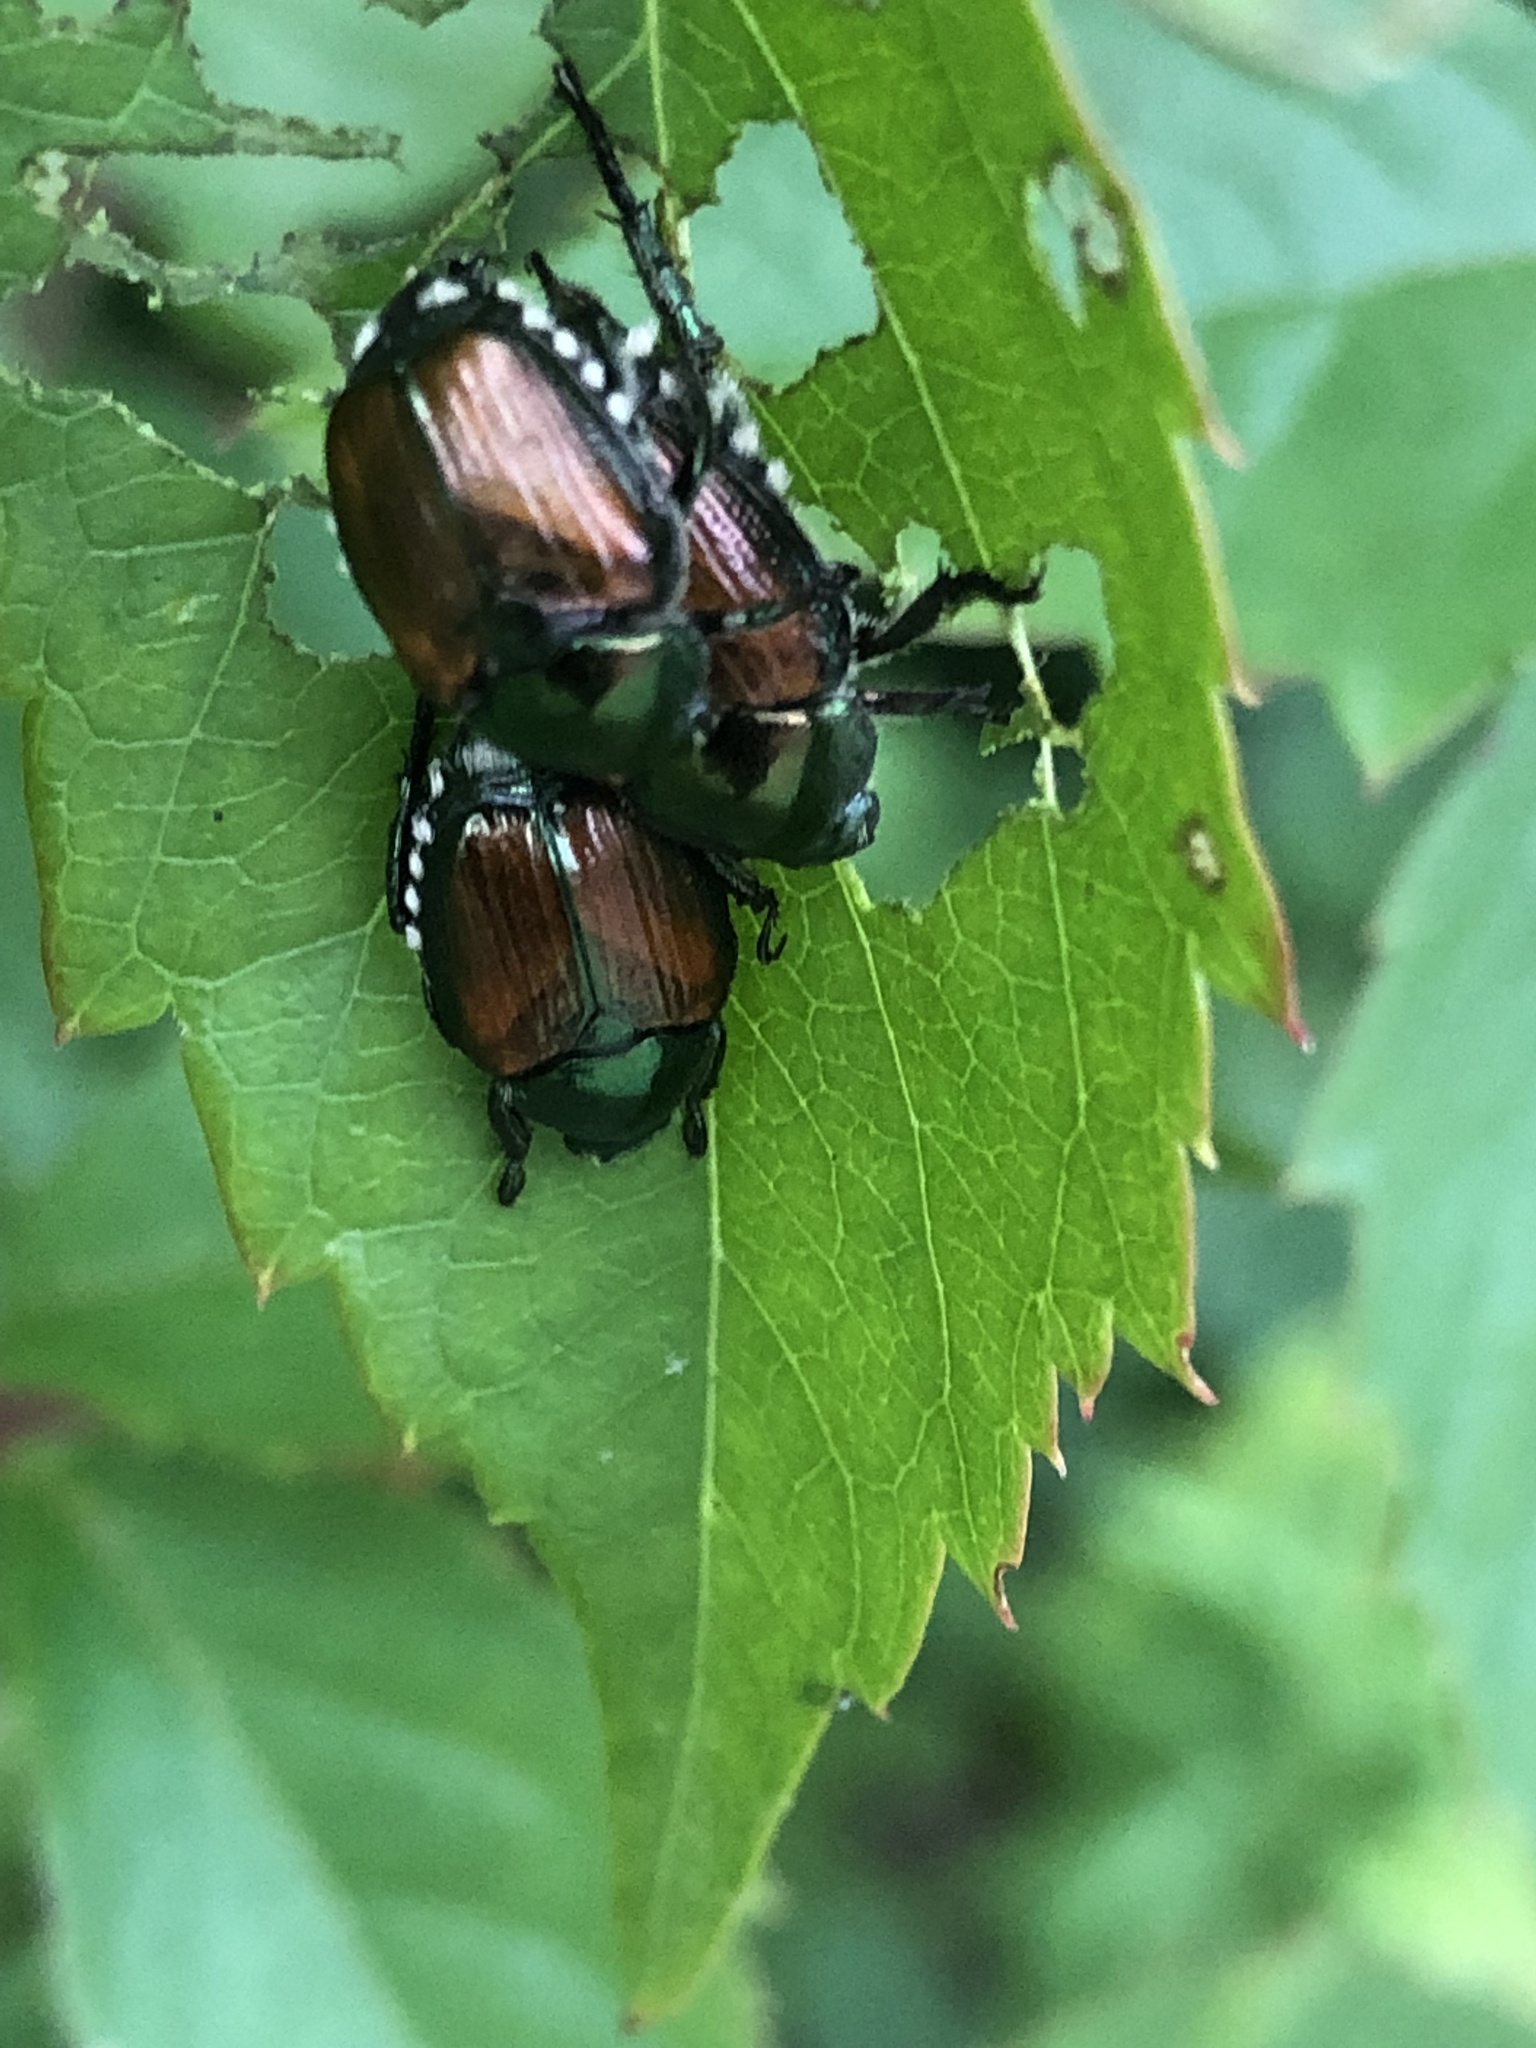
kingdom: Animalia
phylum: Arthropoda
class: Insecta
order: Coleoptera
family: Scarabaeidae
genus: Popillia
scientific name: Popillia japonica
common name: Japanese beetle
